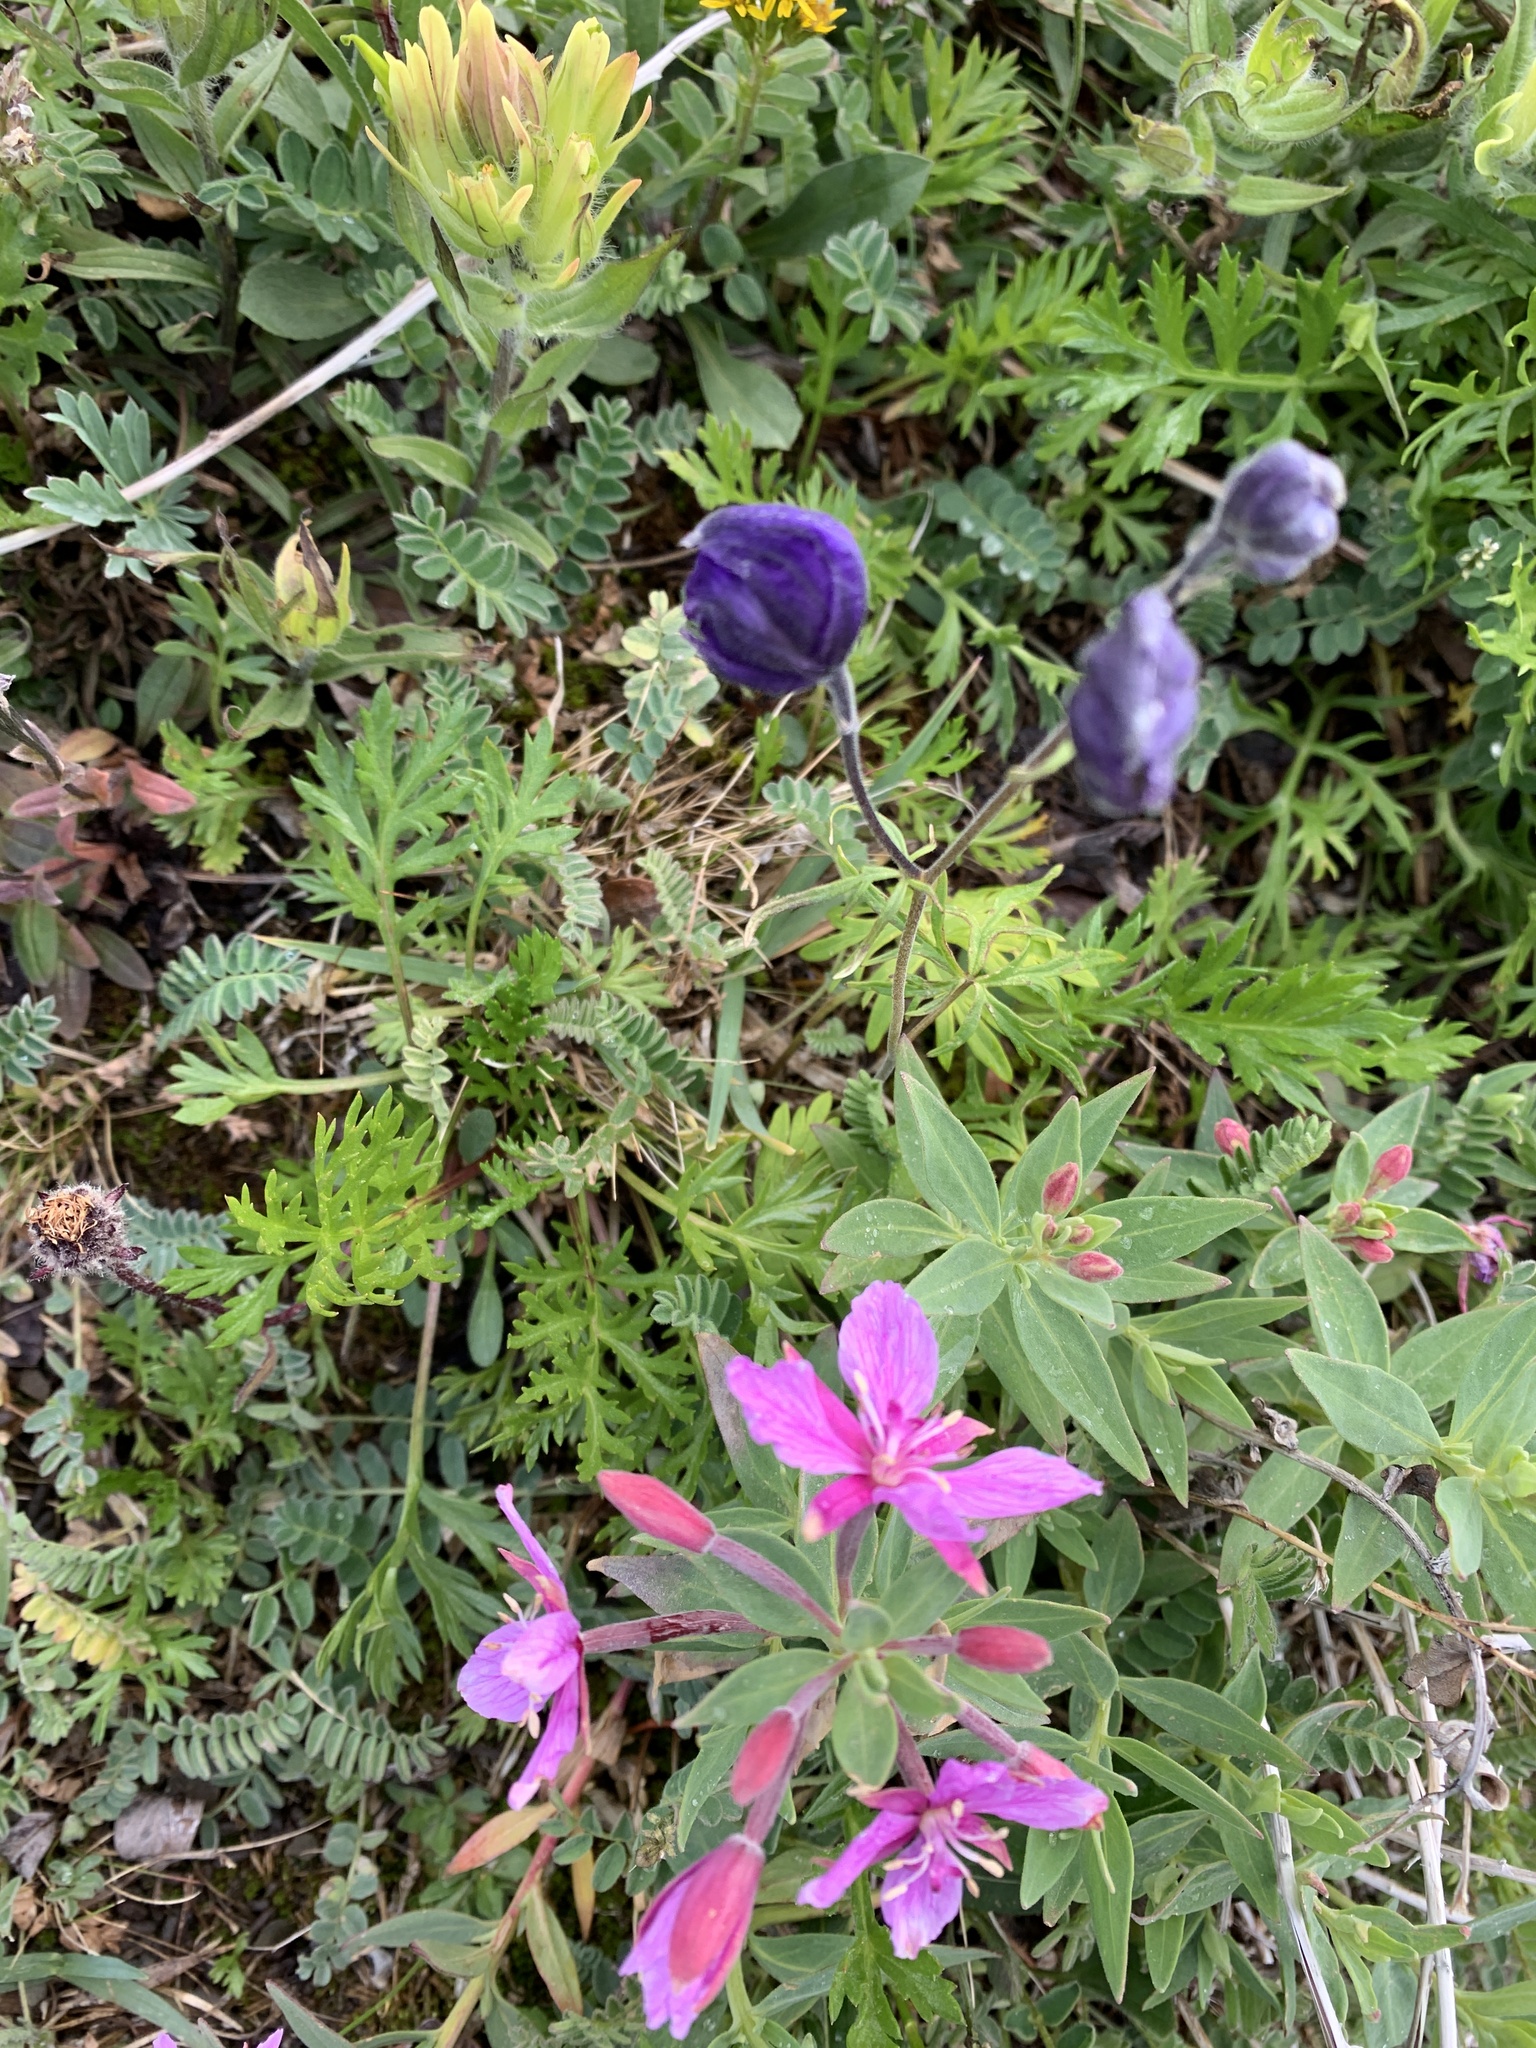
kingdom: Plantae
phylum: Tracheophyta
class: Magnoliopsida
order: Ranunculales
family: Ranunculaceae
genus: Aconitum
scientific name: Aconitum delphiniifolium
